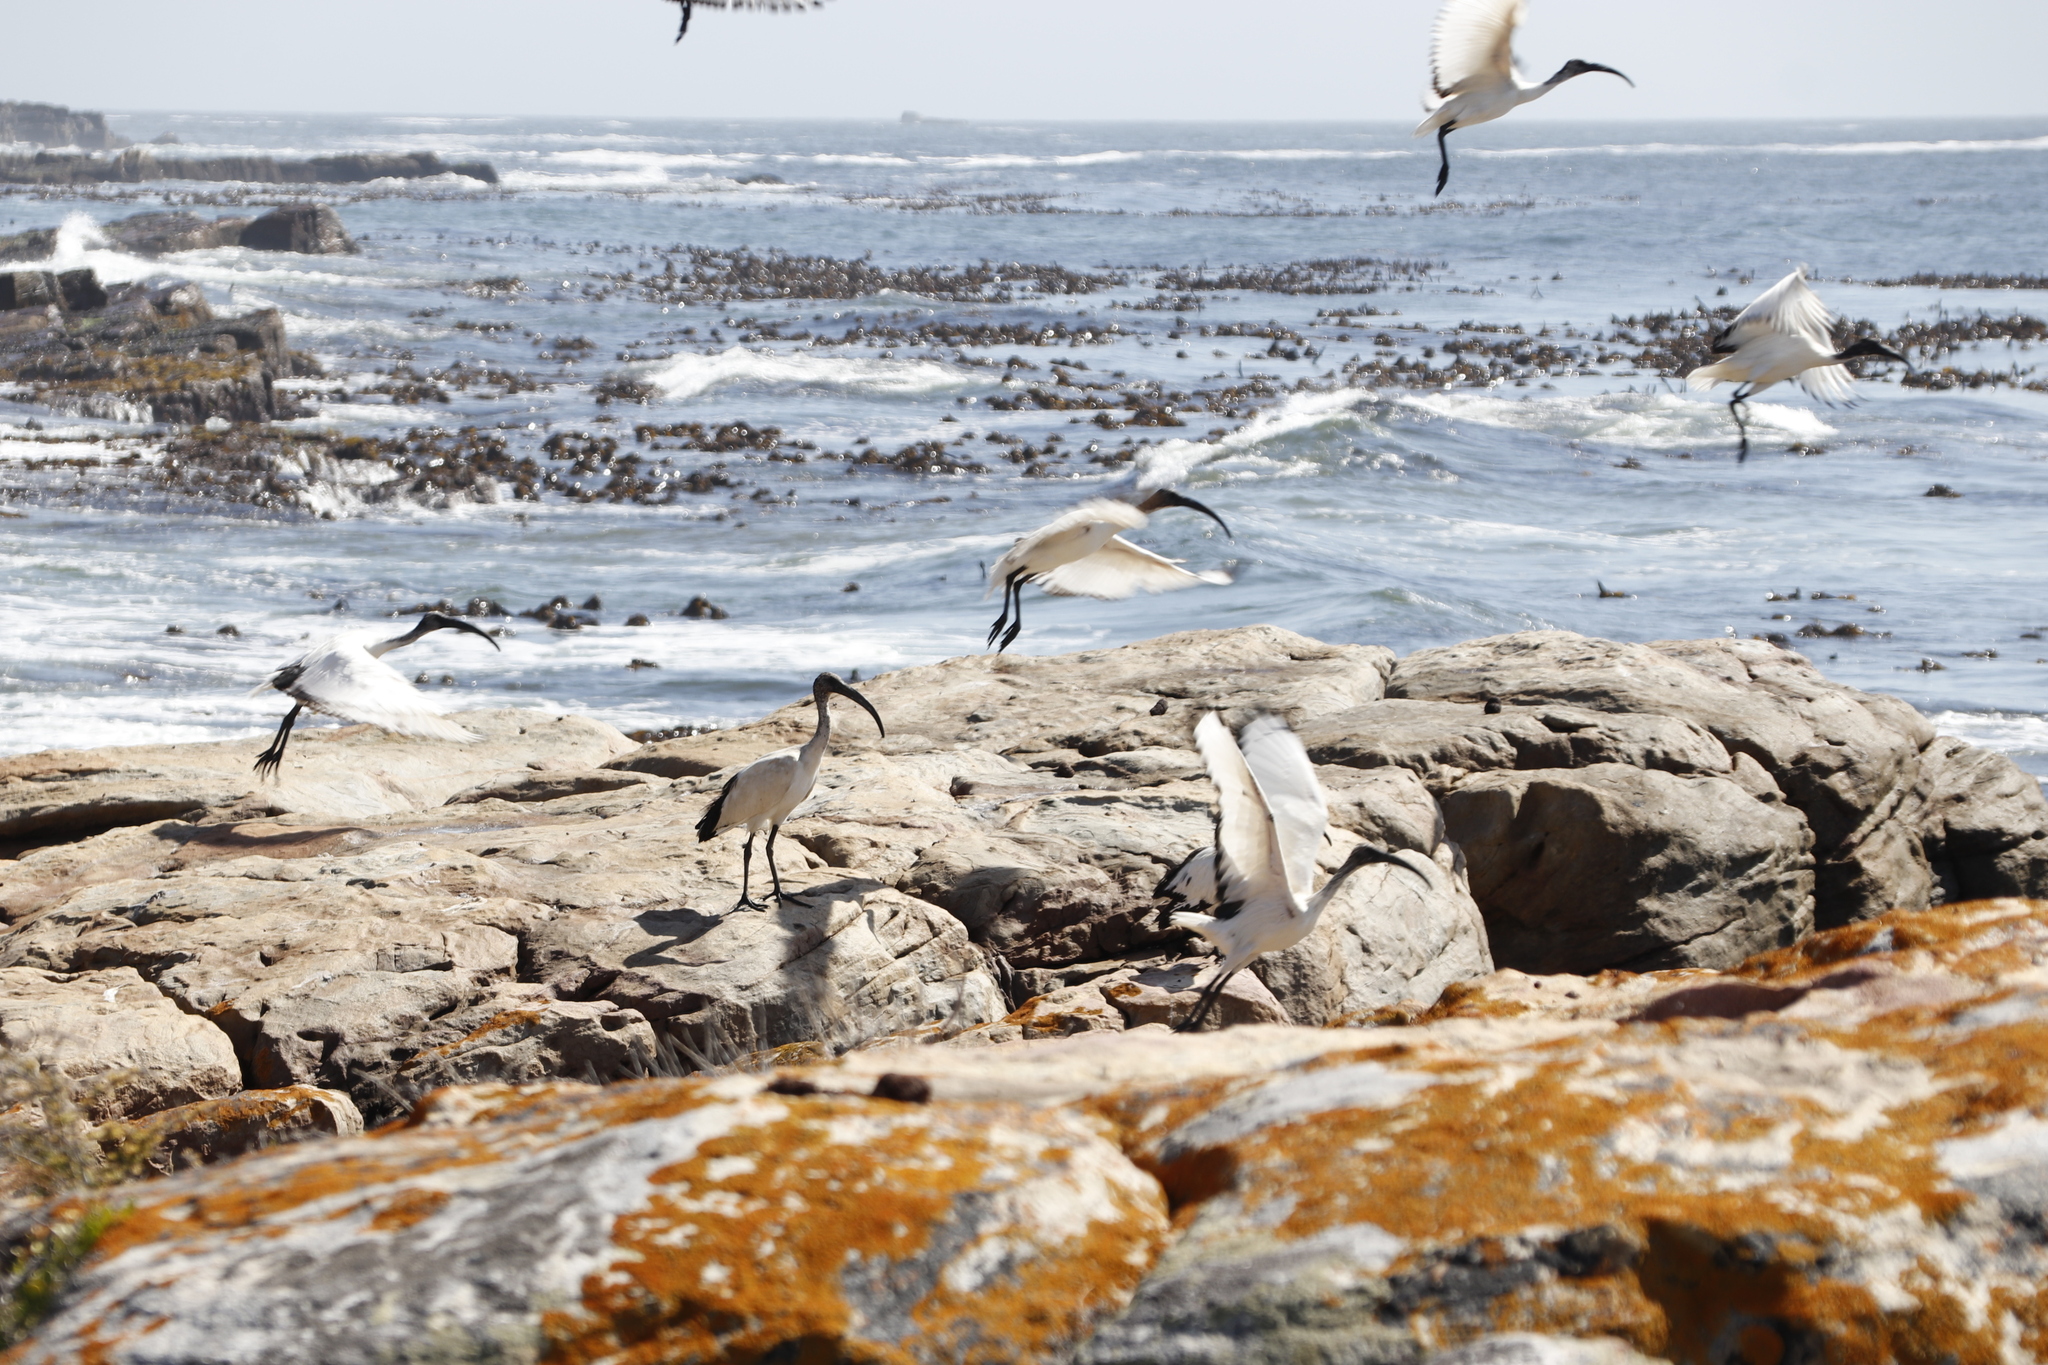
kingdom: Animalia
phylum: Chordata
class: Aves
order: Pelecaniformes
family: Threskiornithidae
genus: Threskiornis
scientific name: Threskiornis aethiopicus
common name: Sacred ibis
